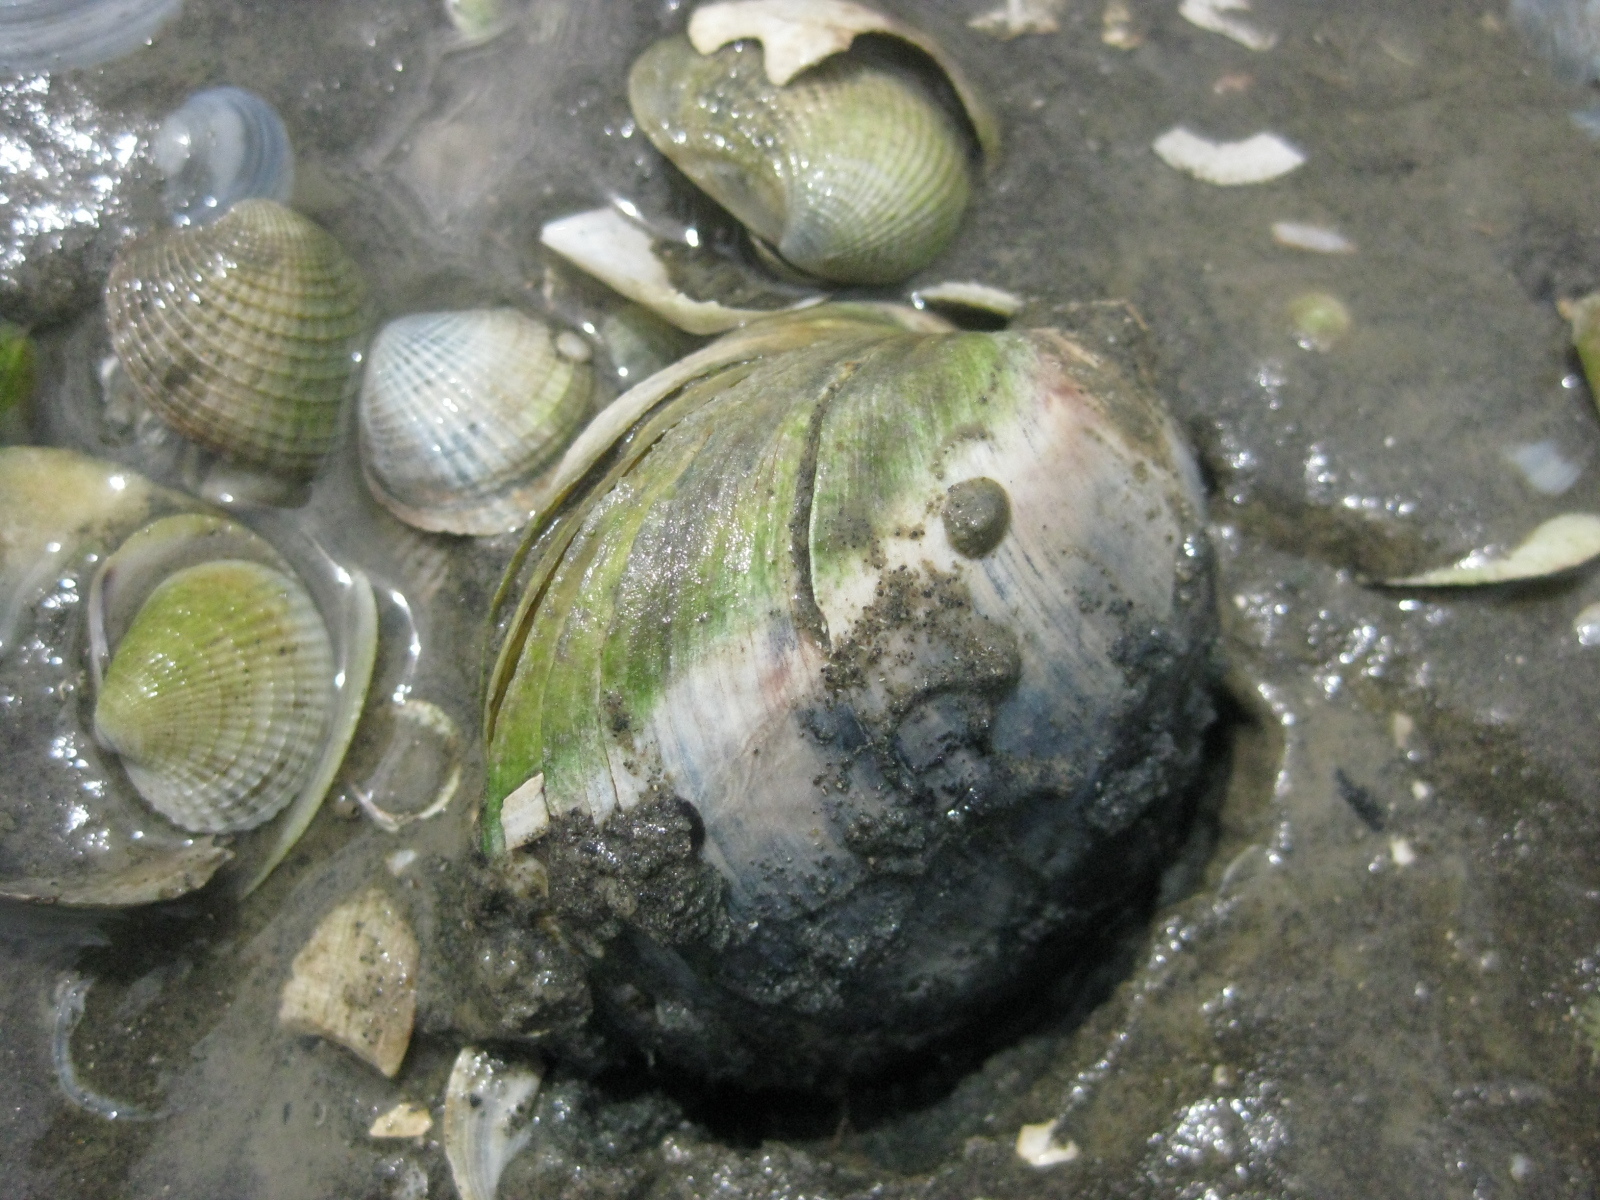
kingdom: Animalia
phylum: Mollusca
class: Bivalvia
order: Venerida
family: Mactridae
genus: Cyclomactra
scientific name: Cyclomactra ovata
